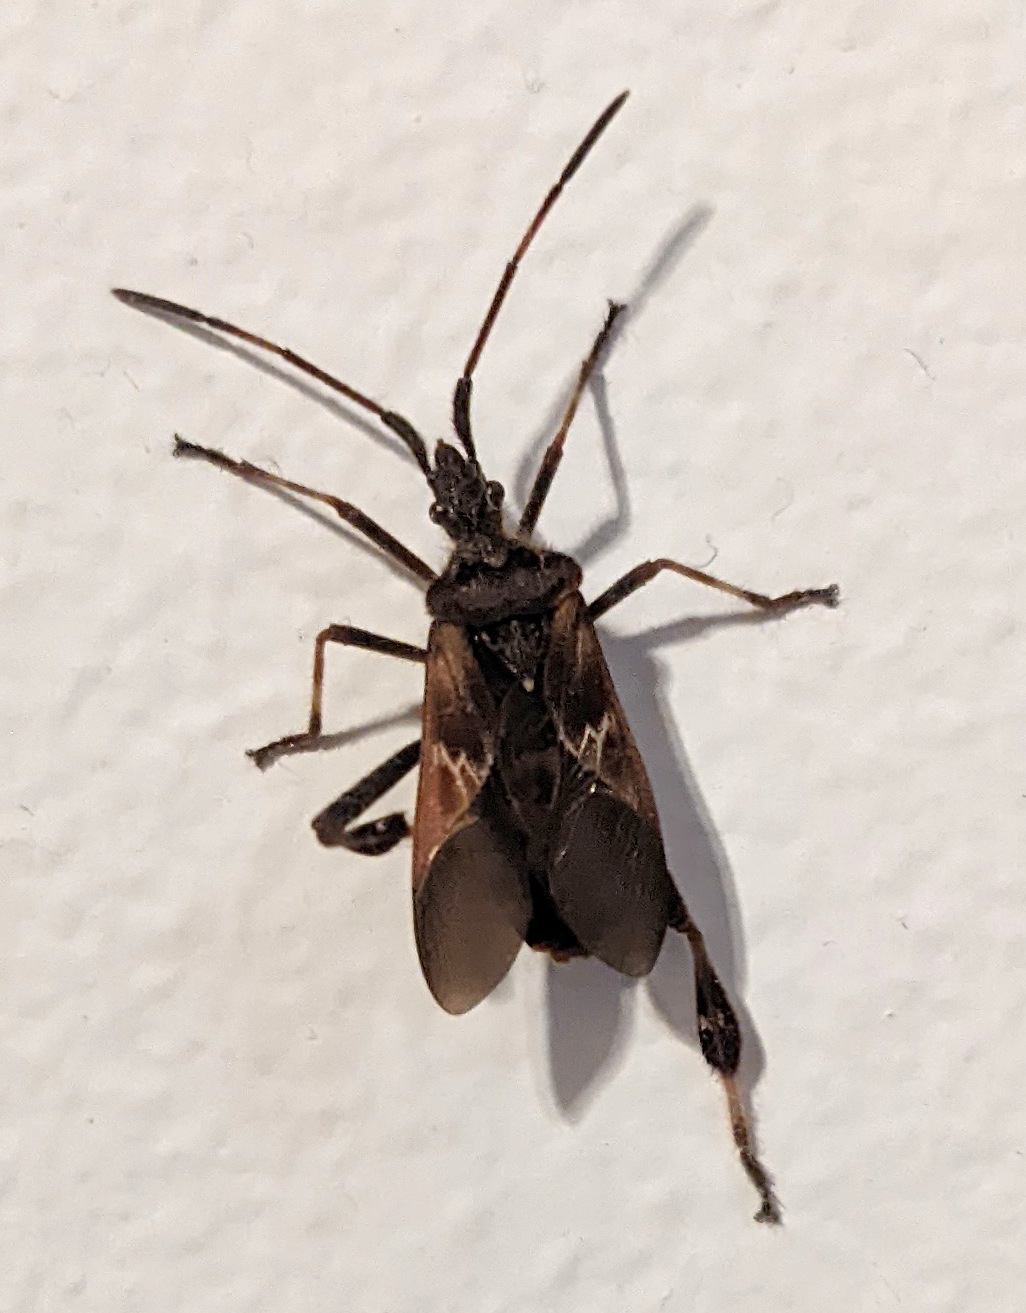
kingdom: Animalia
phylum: Arthropoda
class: Insecta
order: Hemiptera
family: Coreidae
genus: Leptoglossus
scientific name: Leptoglossus occidentalis
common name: Western conifer-seed bug
